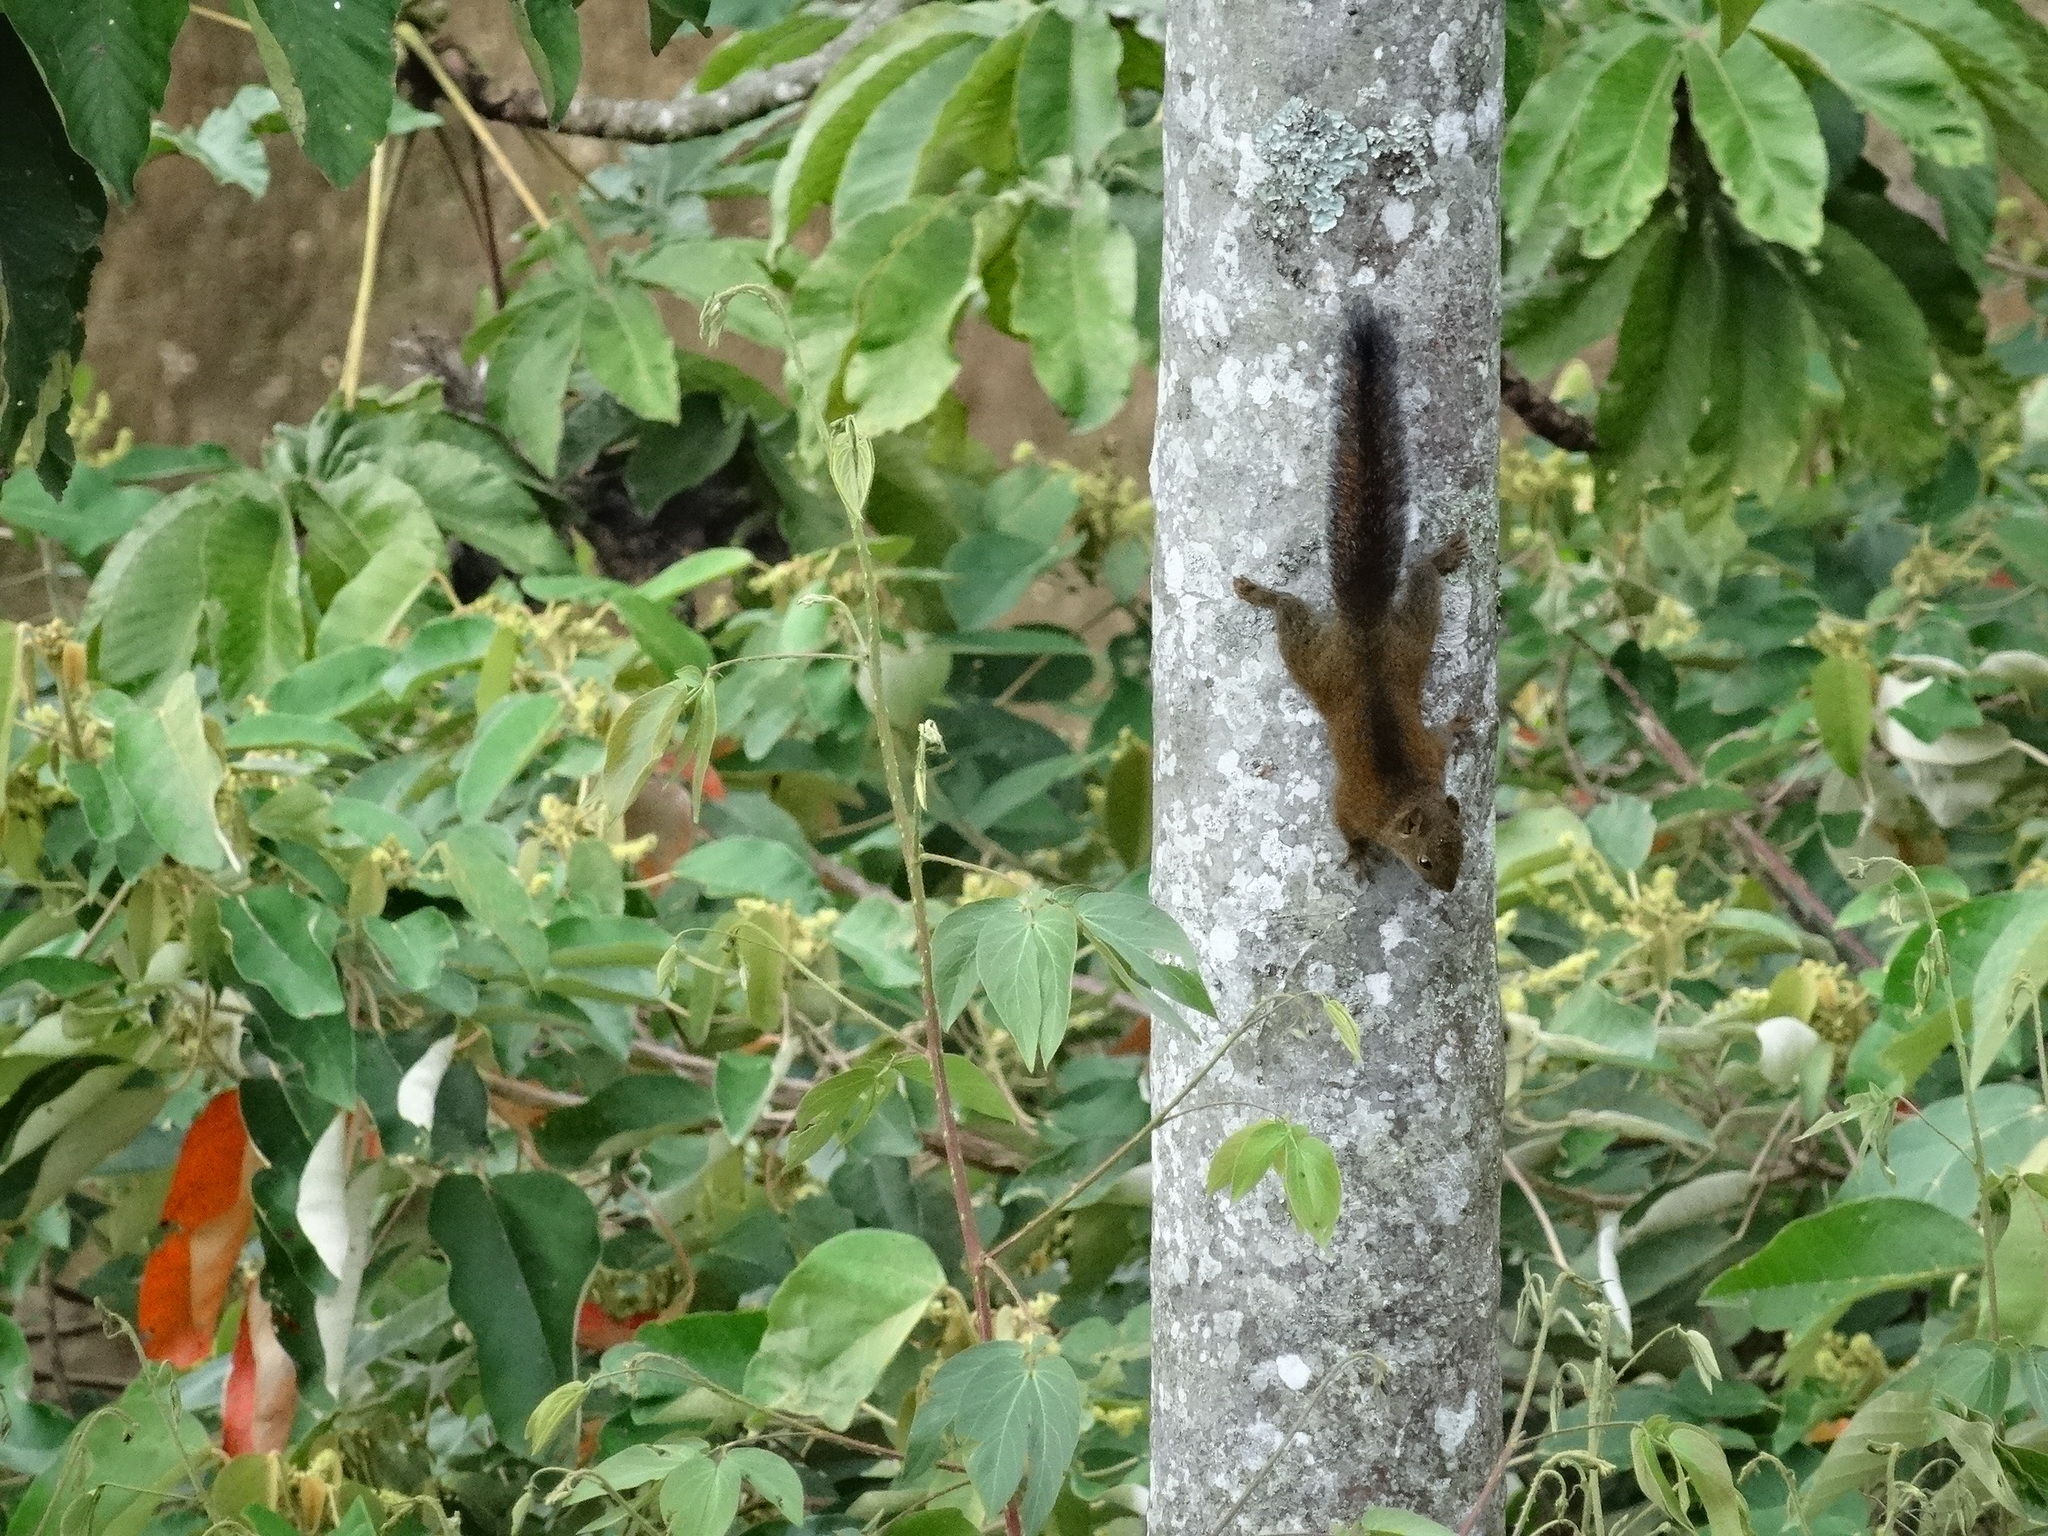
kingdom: Animalia
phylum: Chordata
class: Mammalia
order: Rodentia
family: Sciuridae
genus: Sciurus
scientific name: Sciurus pucheranii
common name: Andean squirrel
